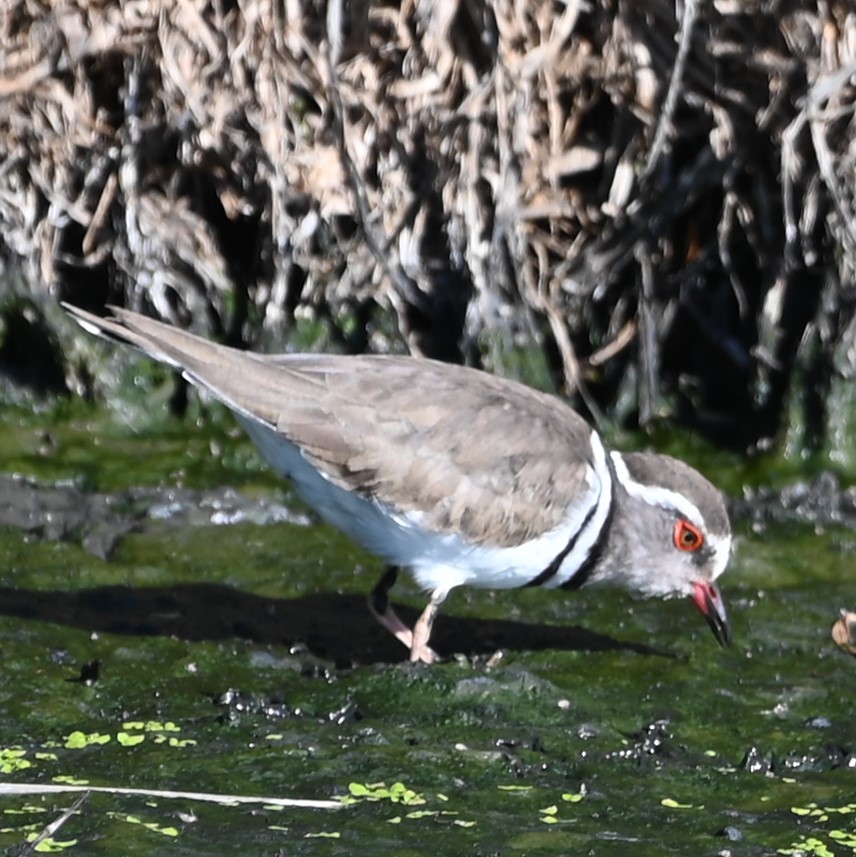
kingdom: Animalia
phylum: Chordata
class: Aves
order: Charadriiformes
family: Charadriidae
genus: Charadrius
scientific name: Charadrius tricollaris
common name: Three-banded plover
